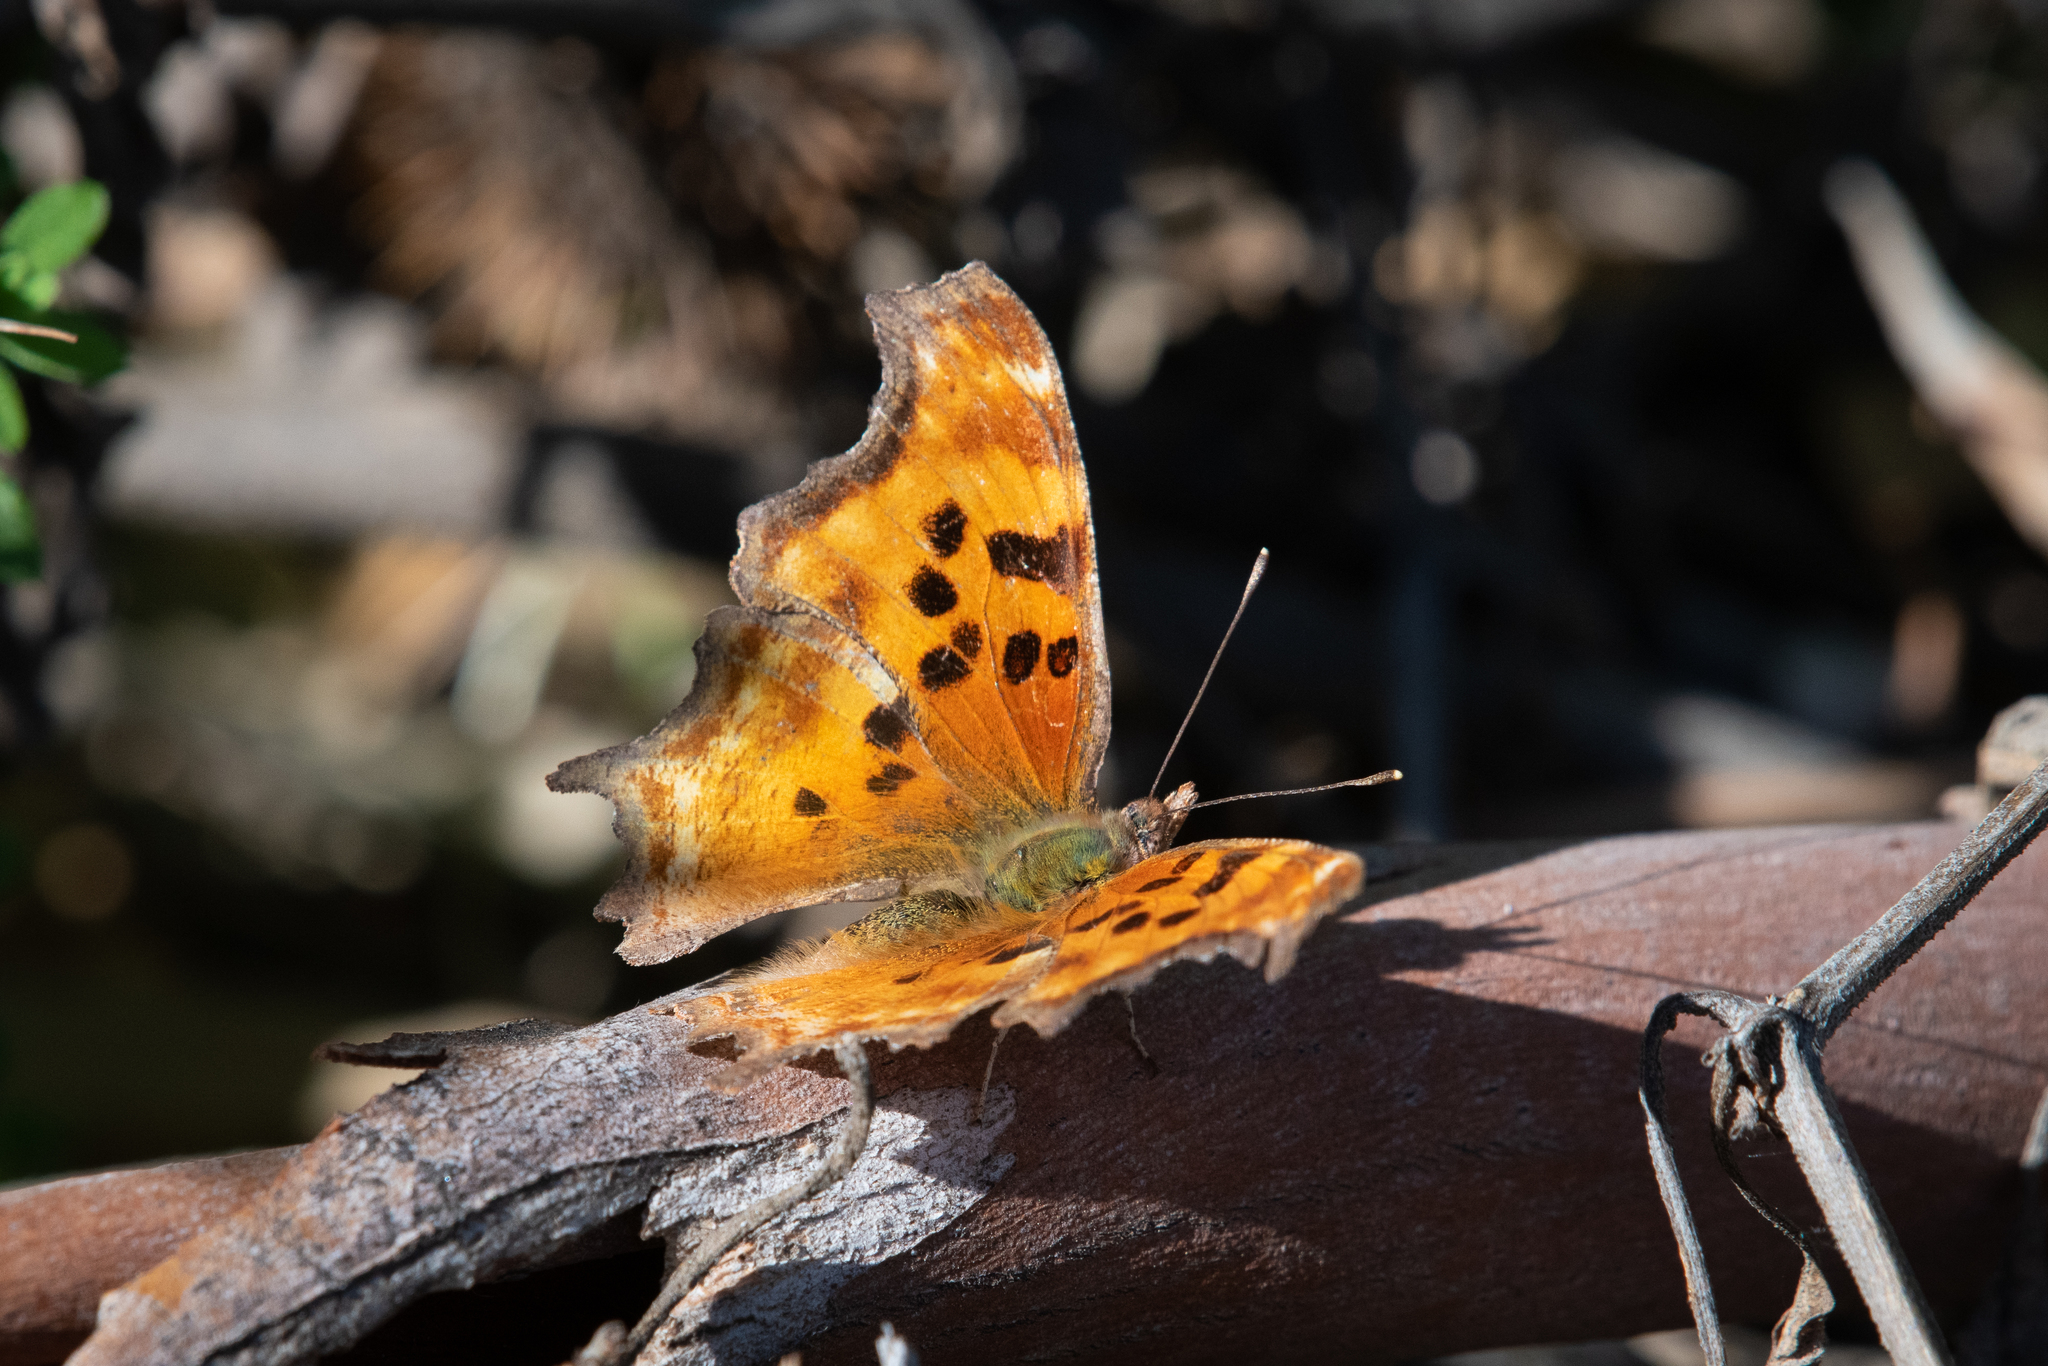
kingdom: Animalia
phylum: Arthropoda
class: Insecta
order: Lepidoptera
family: Nymphalidae
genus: Polygonia
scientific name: Polygonia satyrus
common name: Satyr angle wing
